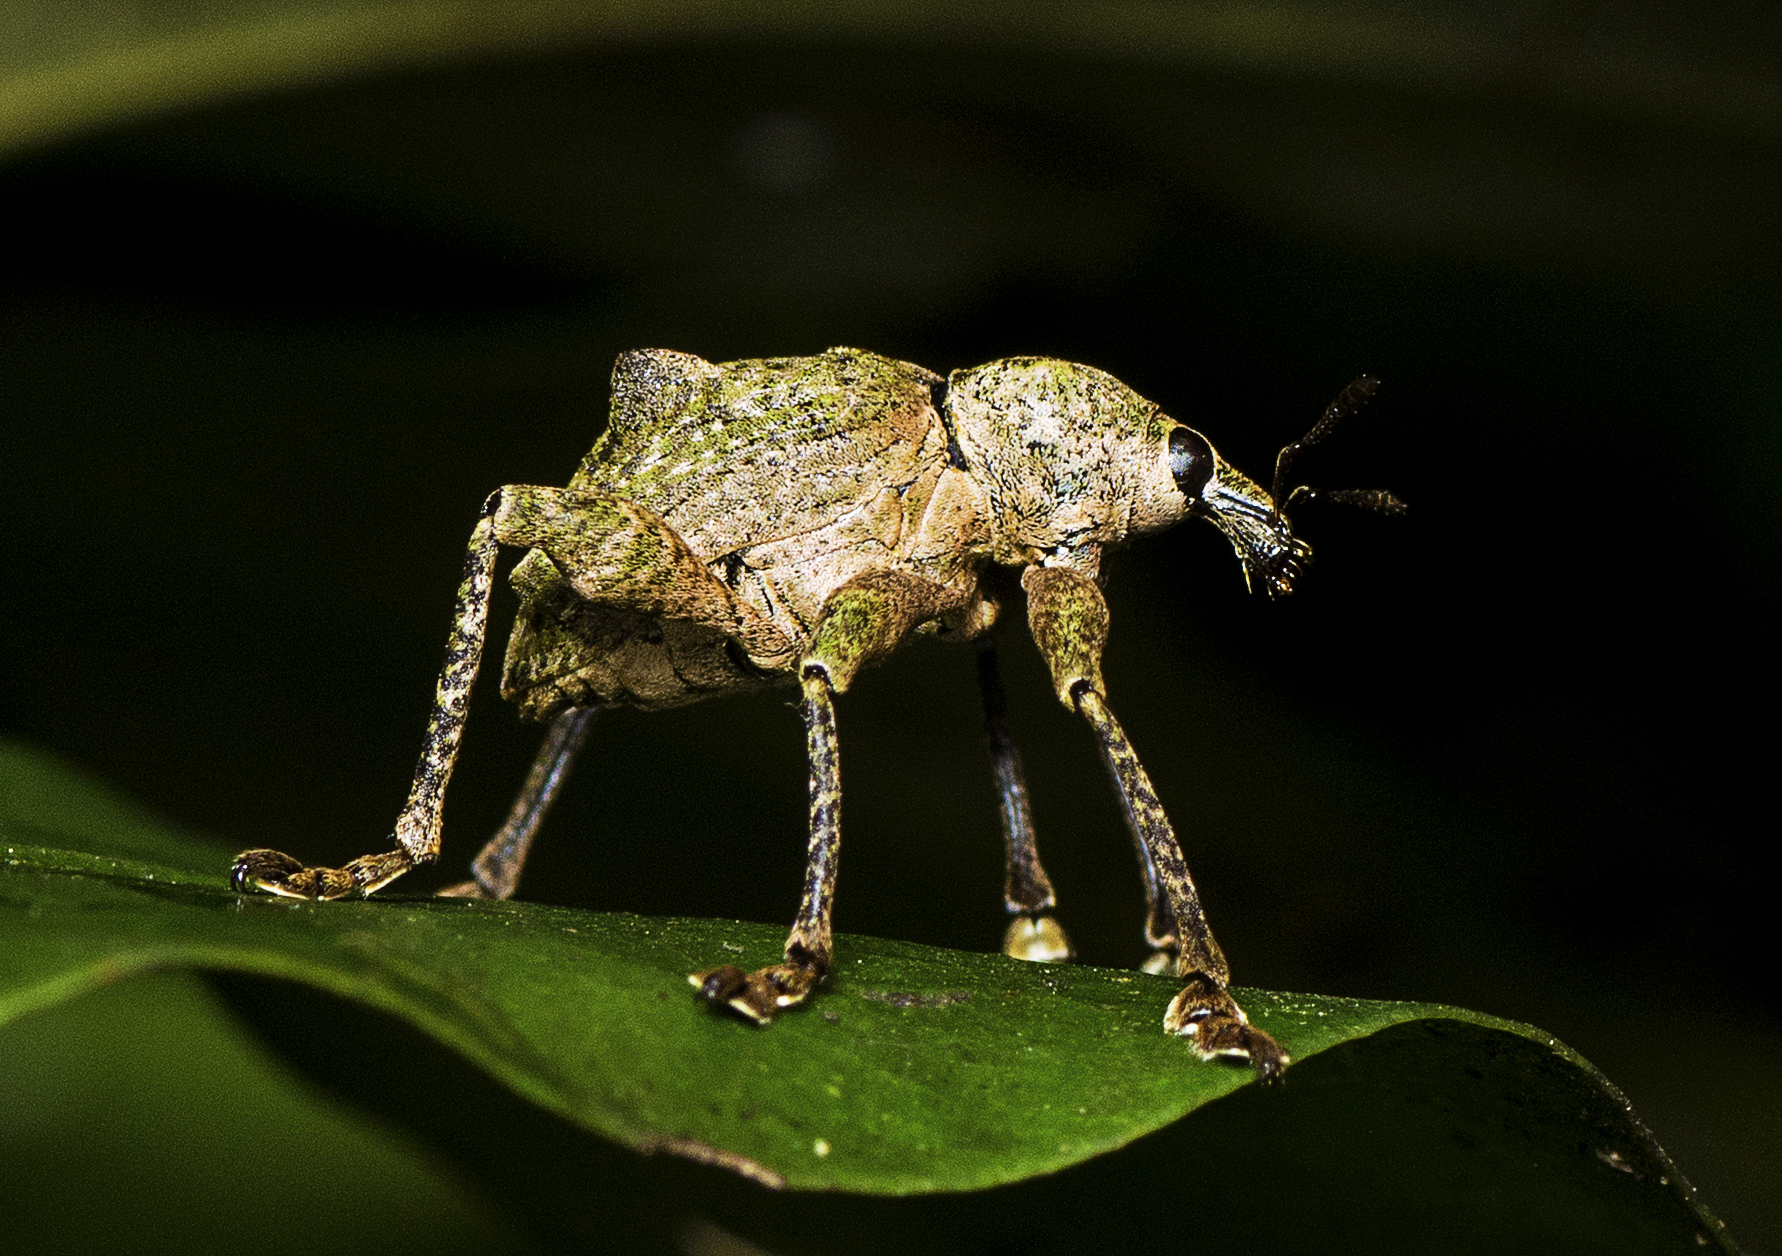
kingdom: Animalia
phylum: Arthropoda
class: Insecta
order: Coleoptera
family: Curculionidae
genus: Eurychirus
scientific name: Eurychirus bituberculatus
